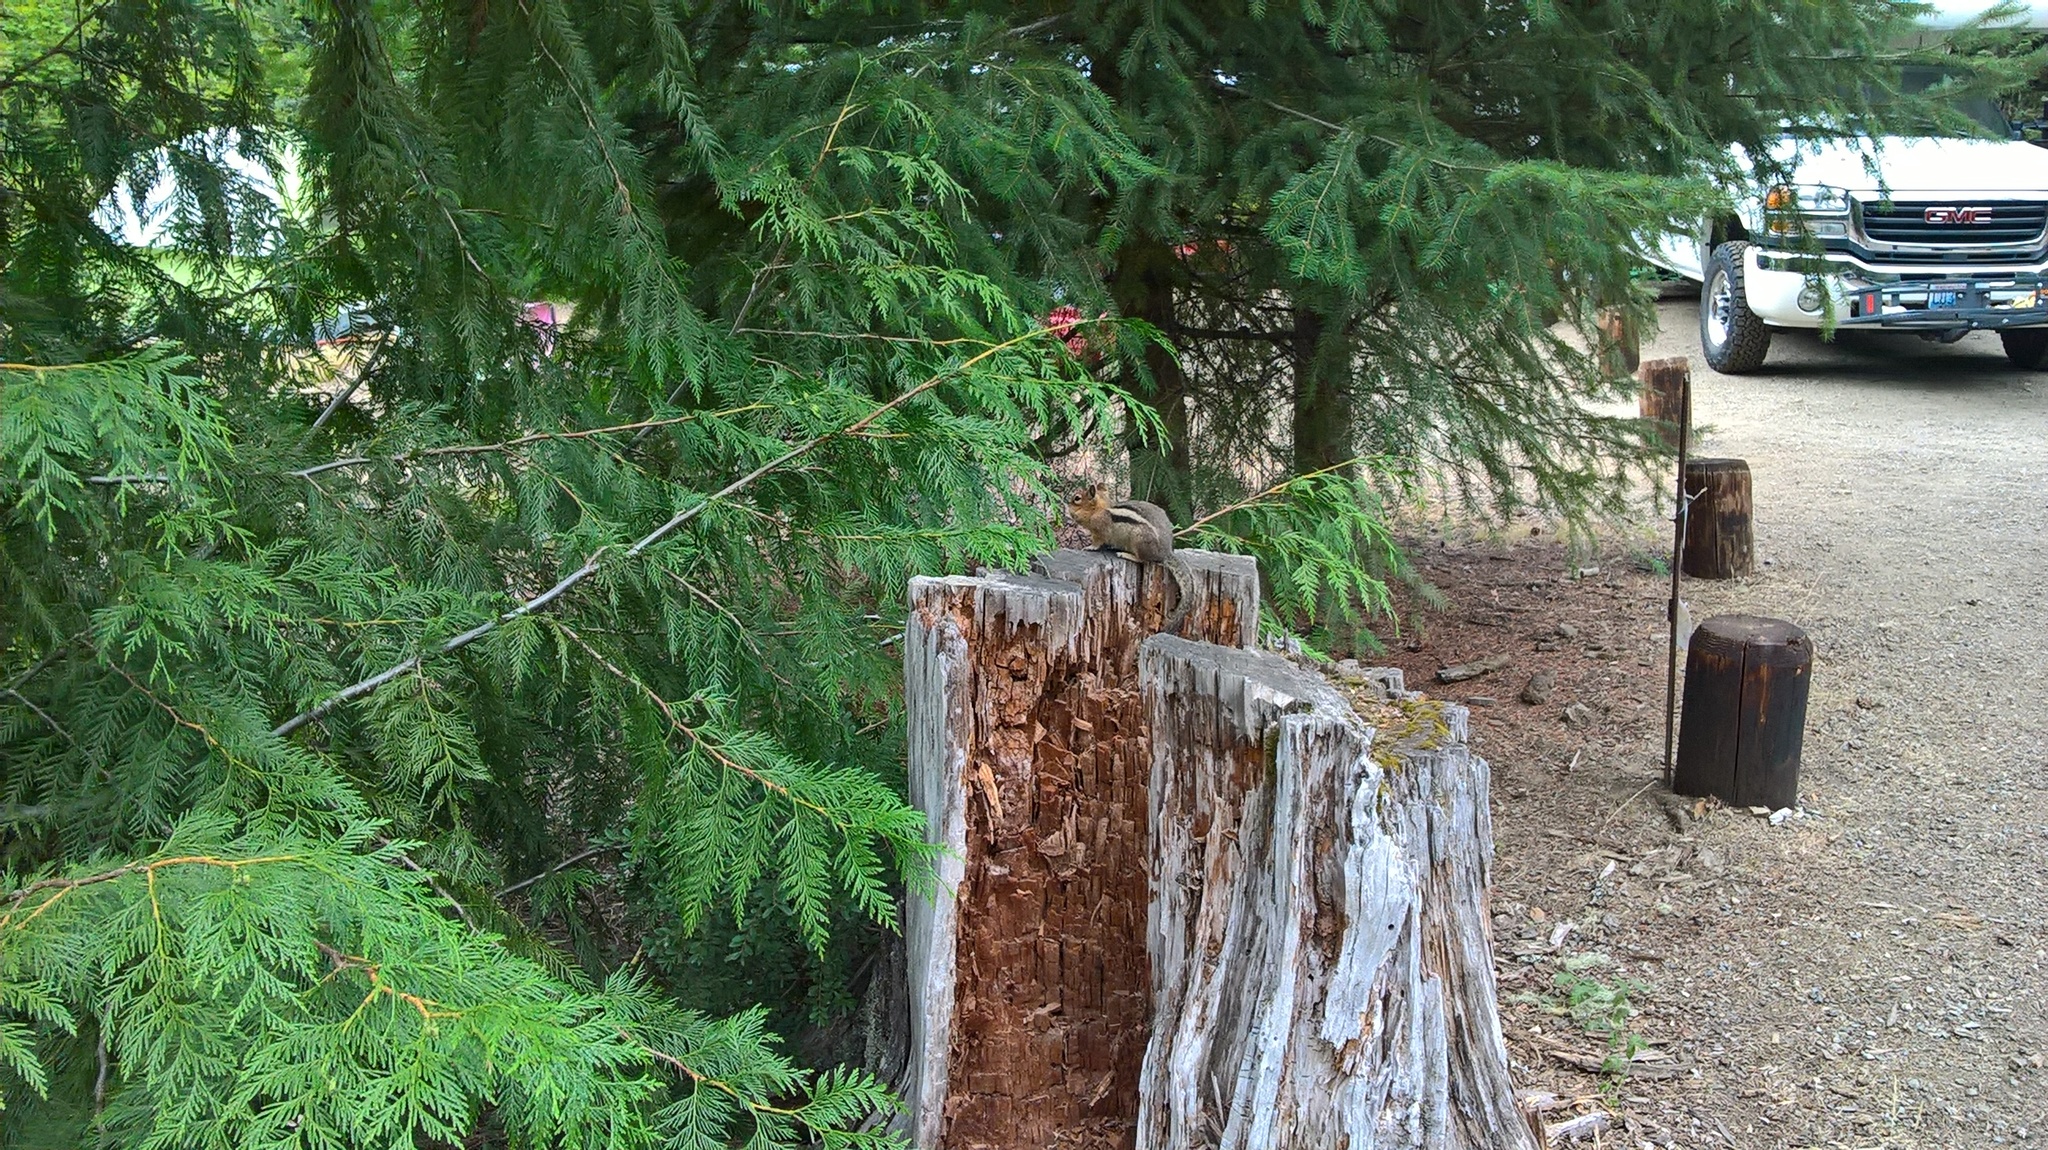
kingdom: Animalia
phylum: Chordata
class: Mammalia
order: Rodentia
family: Sciuridae
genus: Callospermophilus
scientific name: Callospermophilus saturatus
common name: Cascade golden-mantled ground squirrel
